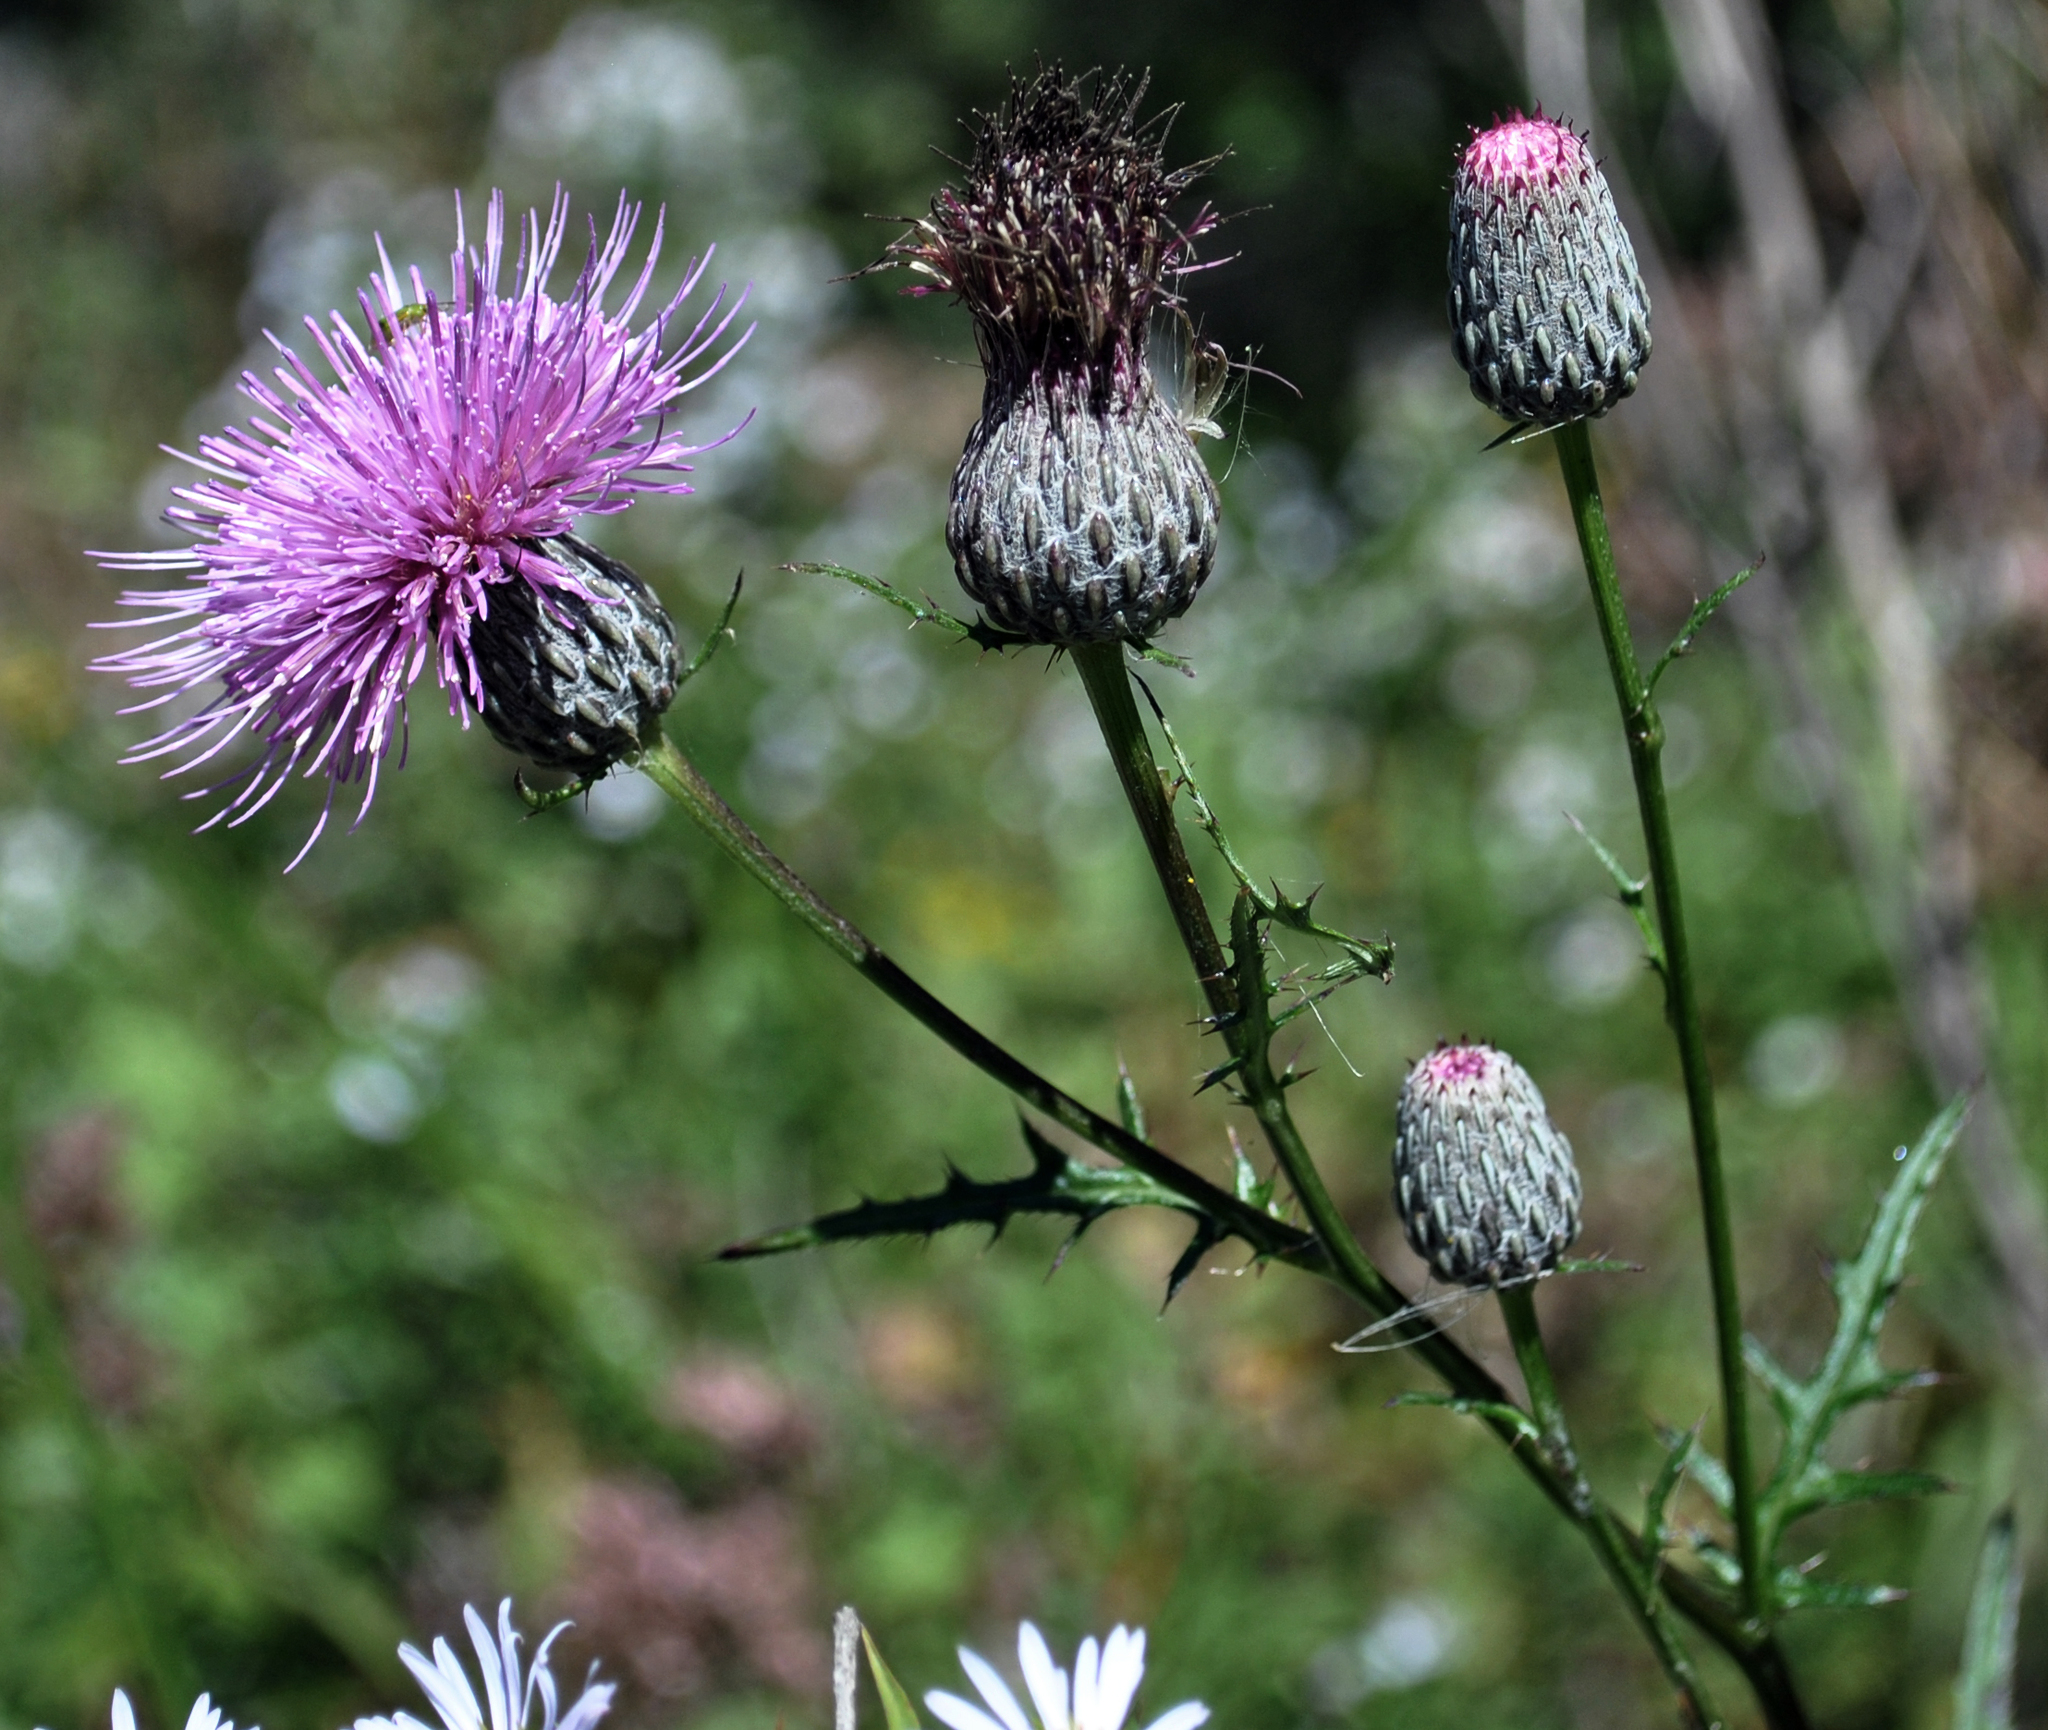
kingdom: Plantae
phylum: Tracheophyta
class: Magnoliopsida
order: Asterales
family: Asteraceae
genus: Cirsium
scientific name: Cirsium muticum
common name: Dunce-nettle
